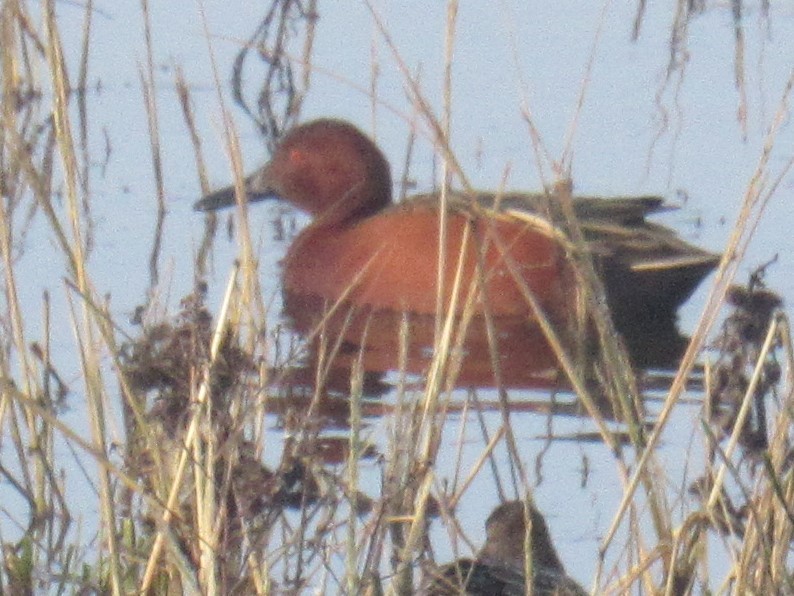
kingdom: Animalia
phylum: Chordata
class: Aves
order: Anseriformes
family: Anatidae
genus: Spatula
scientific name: Spatula cyanoptera
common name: Cinnamon teal
